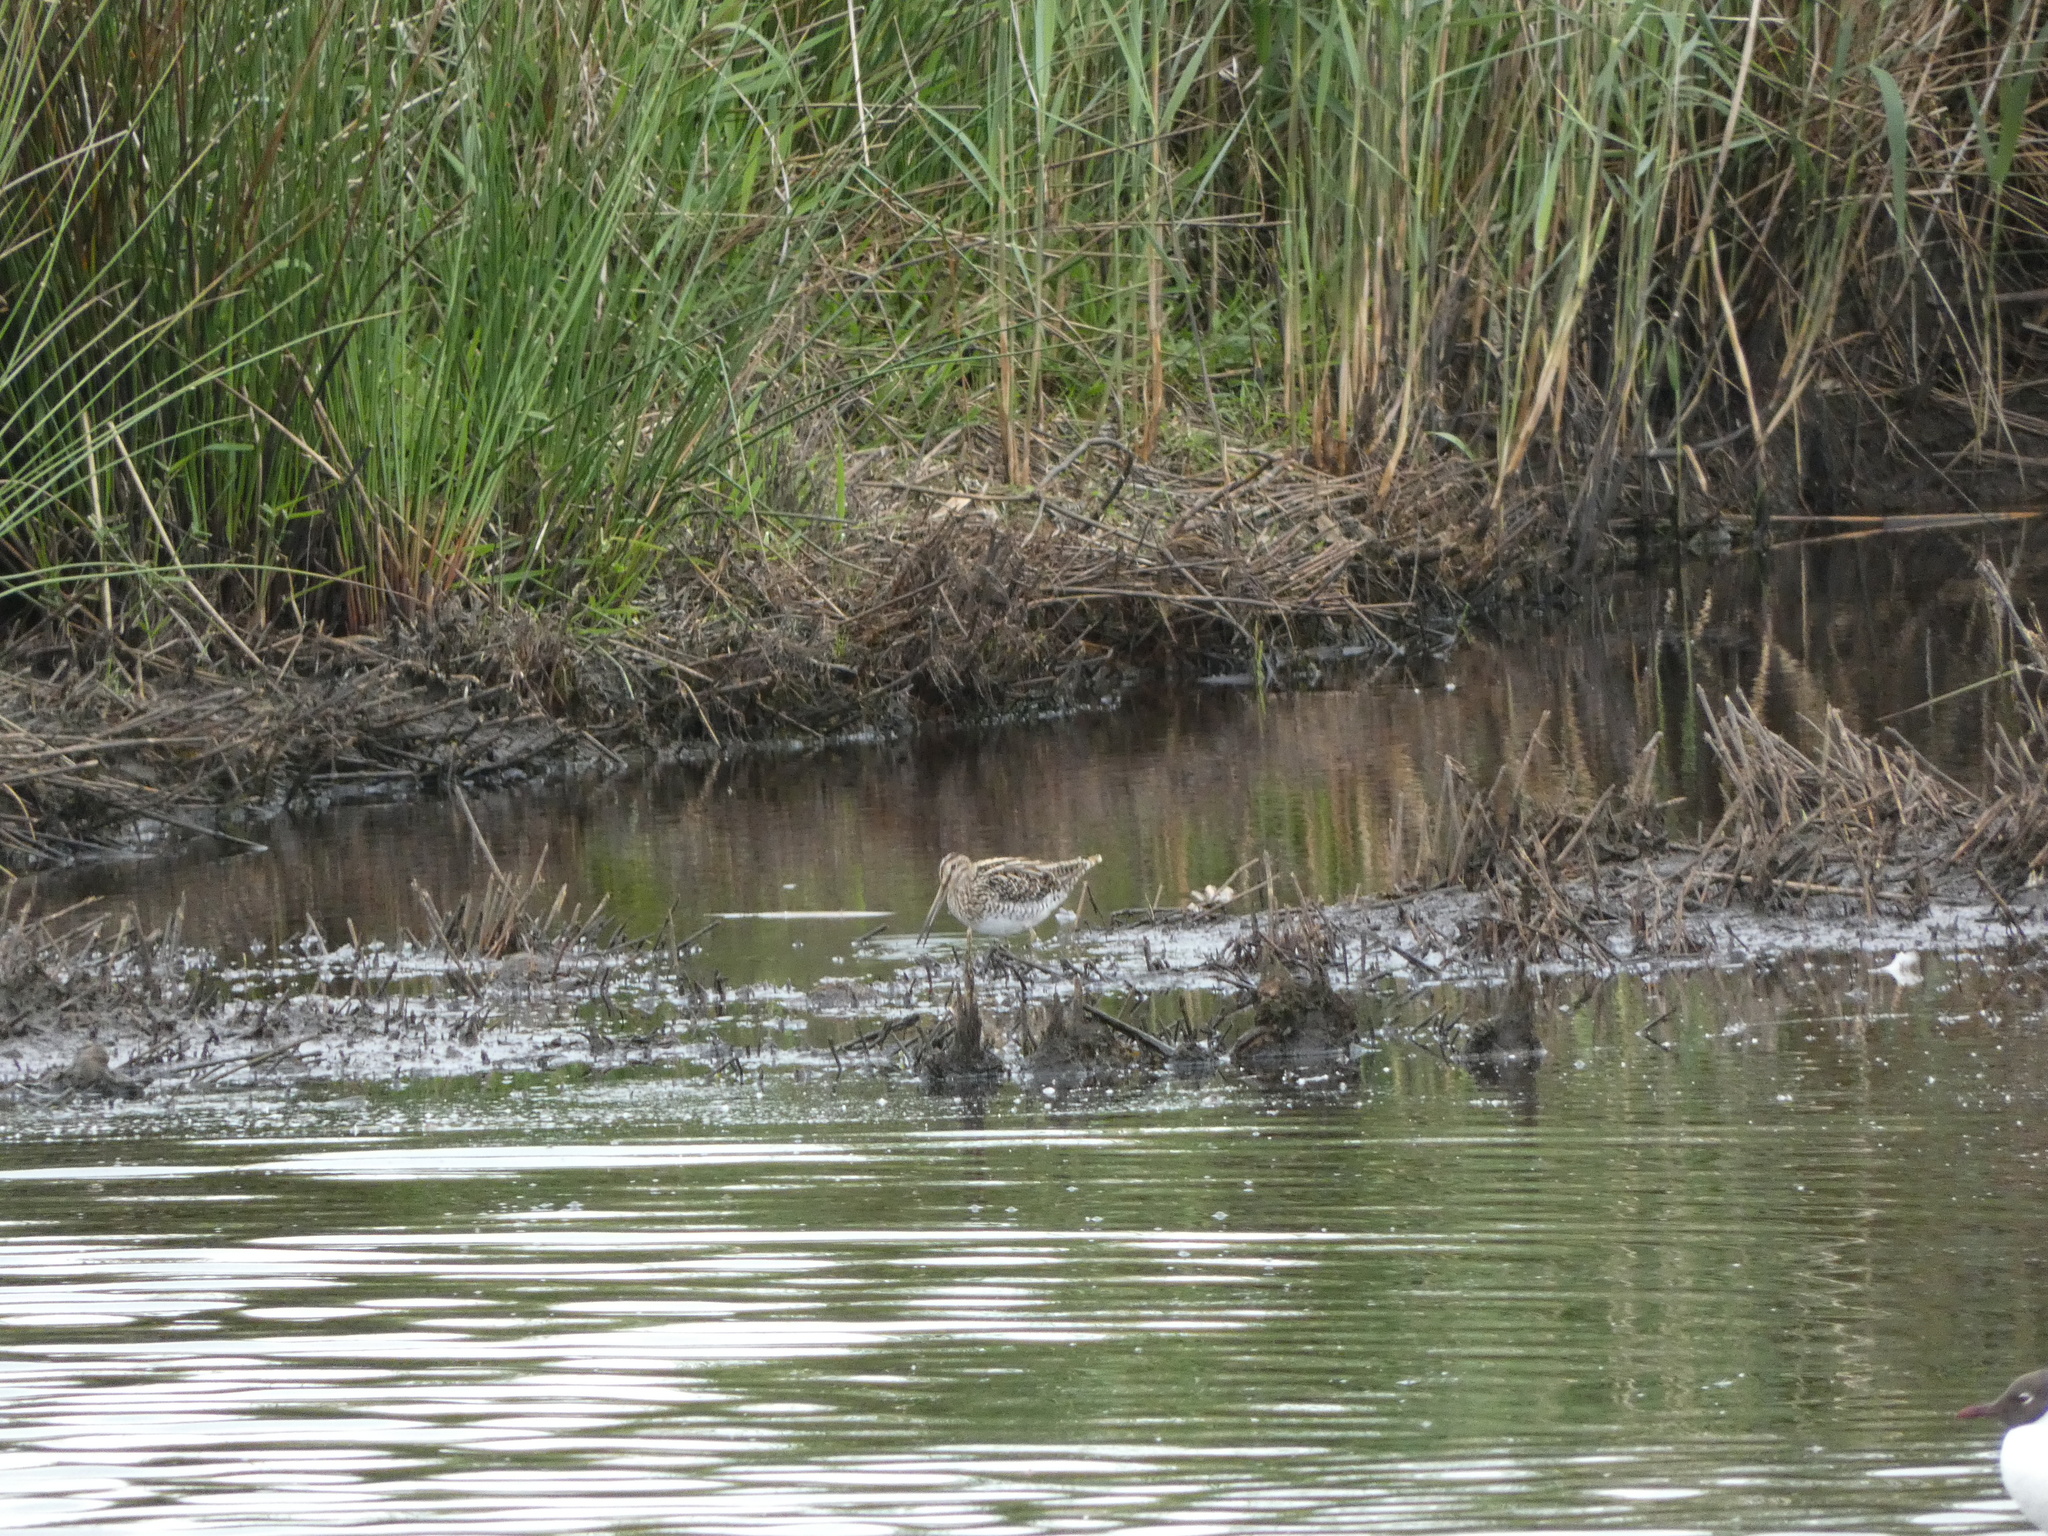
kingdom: Animalia
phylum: Chordata
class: Aves
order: Charadriiformes
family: Scolopacidae
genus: Gallinago
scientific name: Gallinago gallinago
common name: Common snipe
